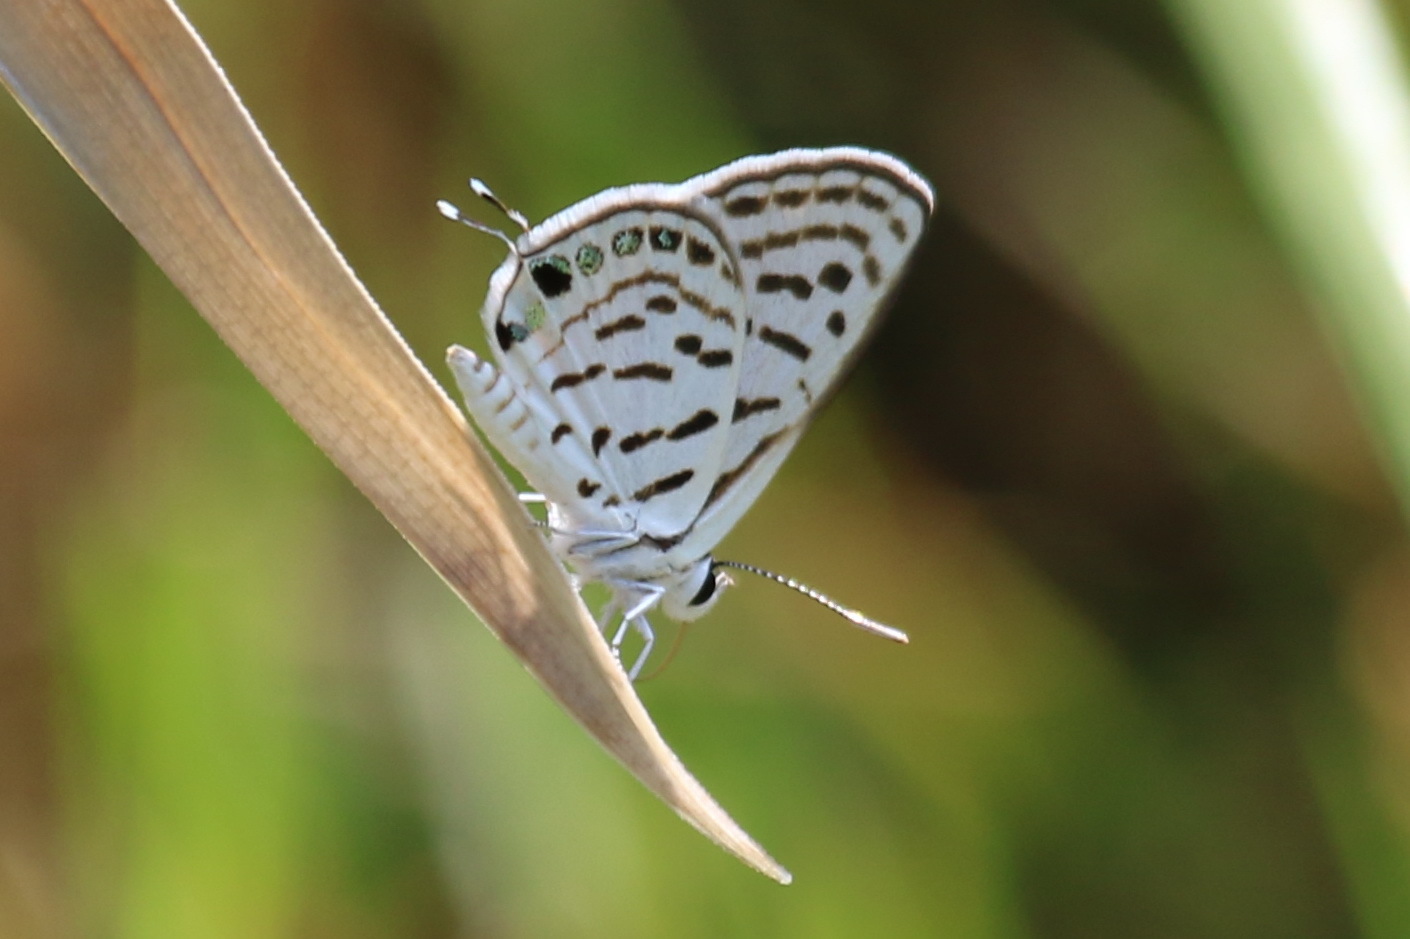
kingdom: Animalia
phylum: Arthropoda
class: Insecta
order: Lepidoptera
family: Lycaenidae
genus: Tarucus
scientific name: Tarucus rosacea
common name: Mediterranean pierrot
